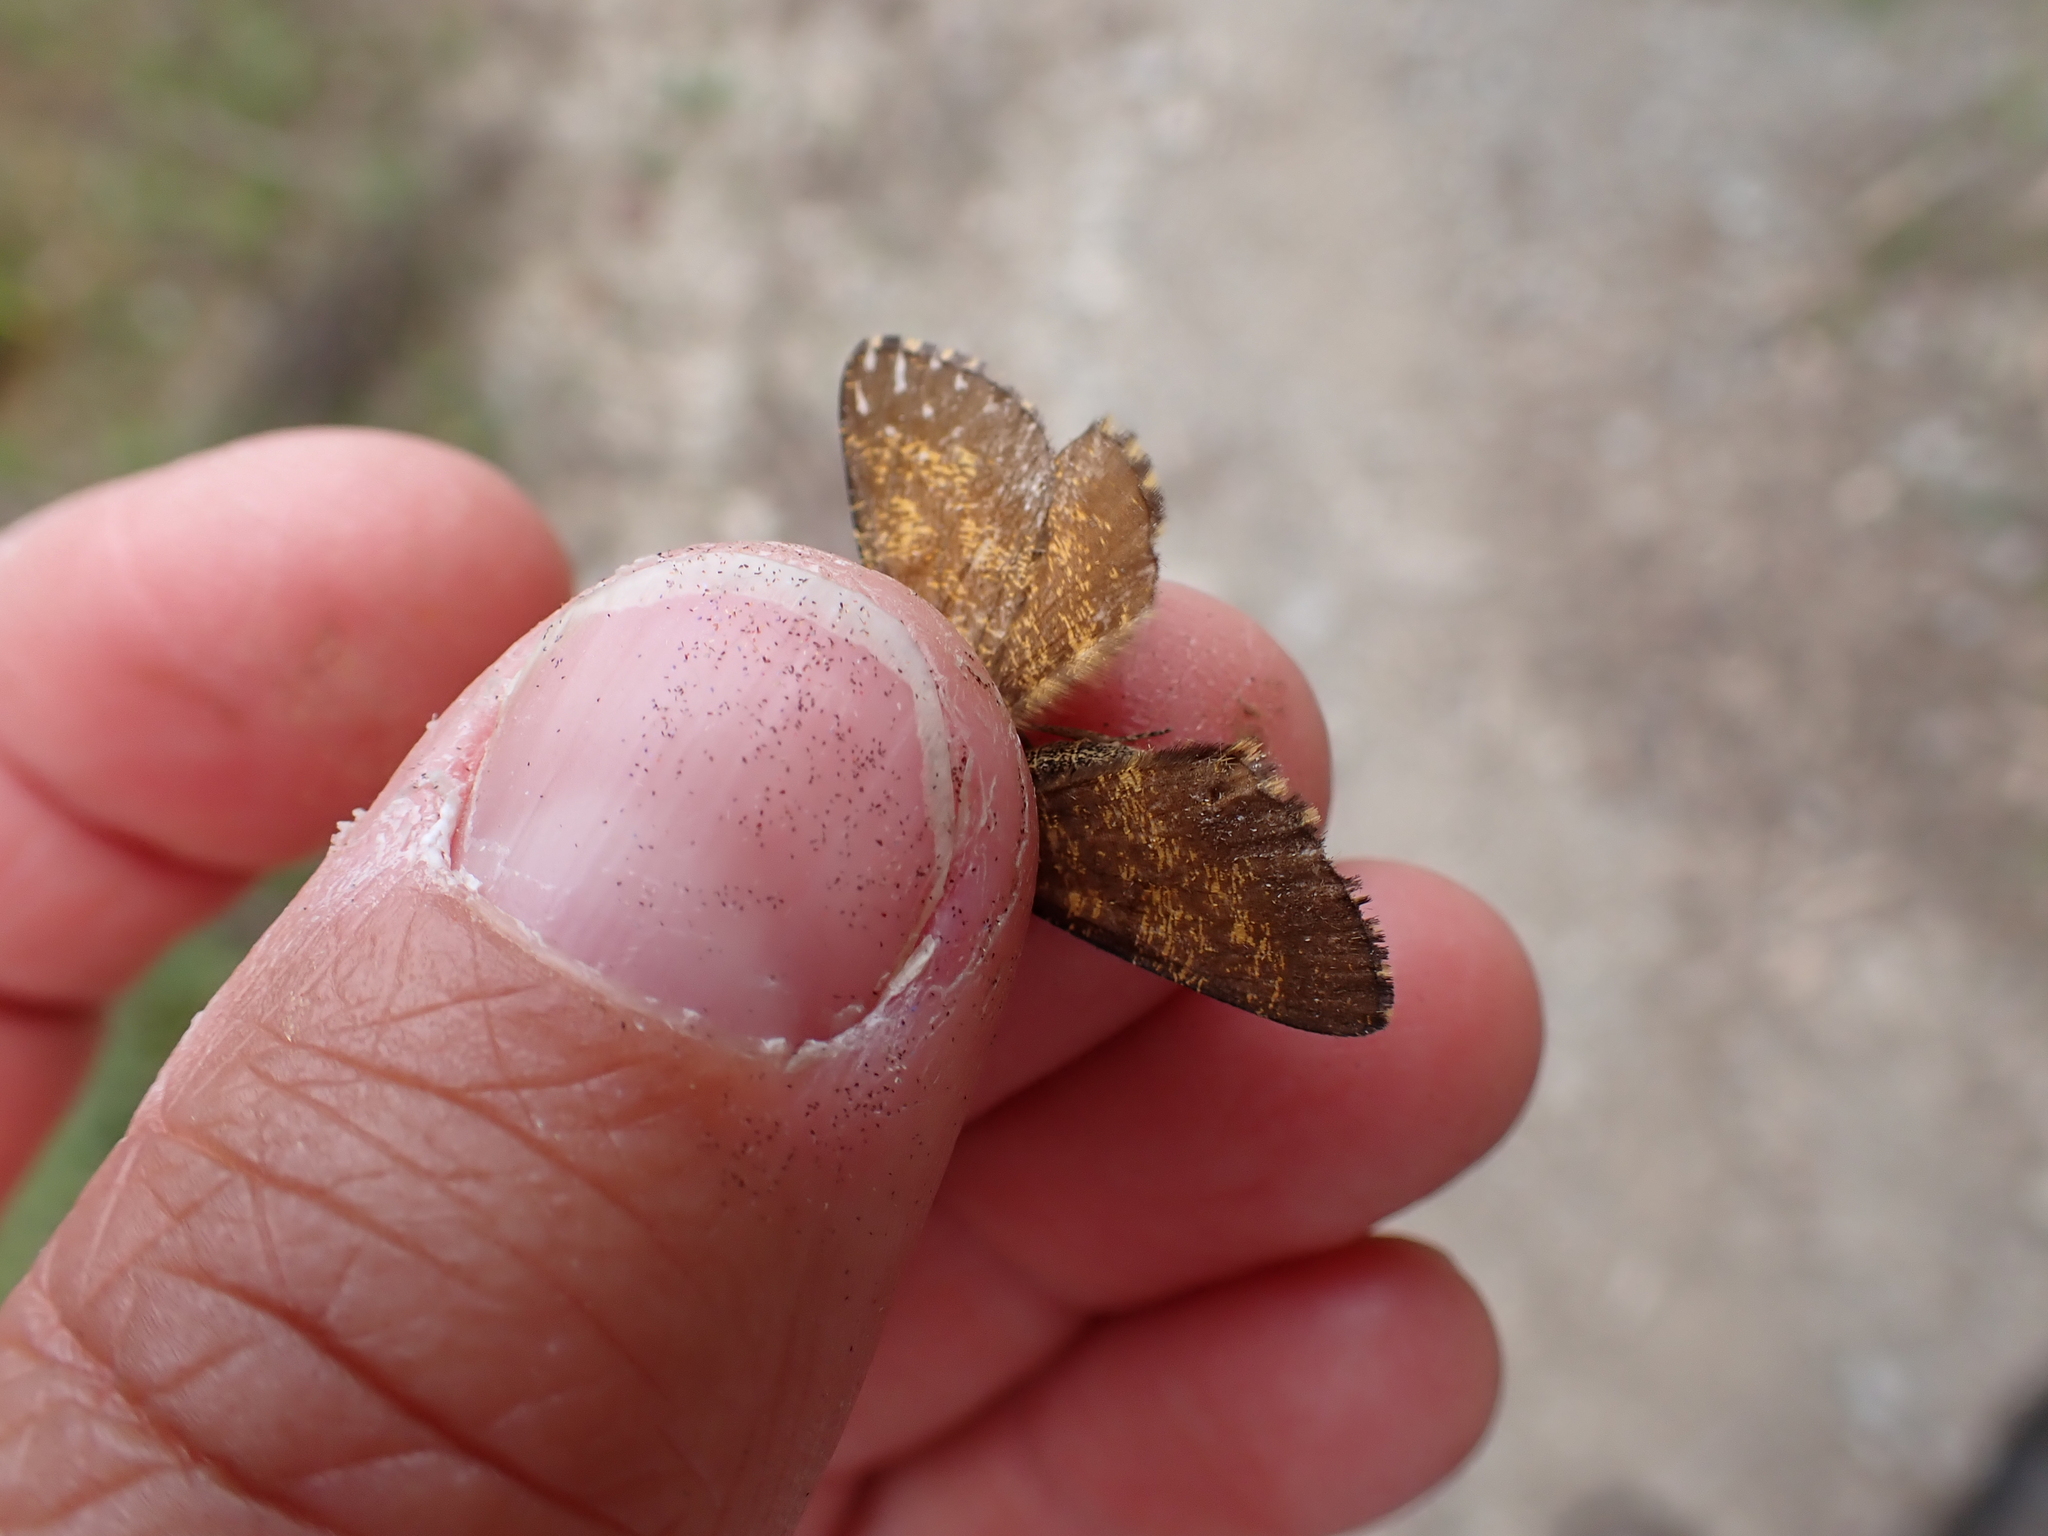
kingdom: Animalia
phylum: Arthropoda
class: Insecta
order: Lepidoptera
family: Geometridae
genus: Ematurga
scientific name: Ematurga atomaria
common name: Common heath
